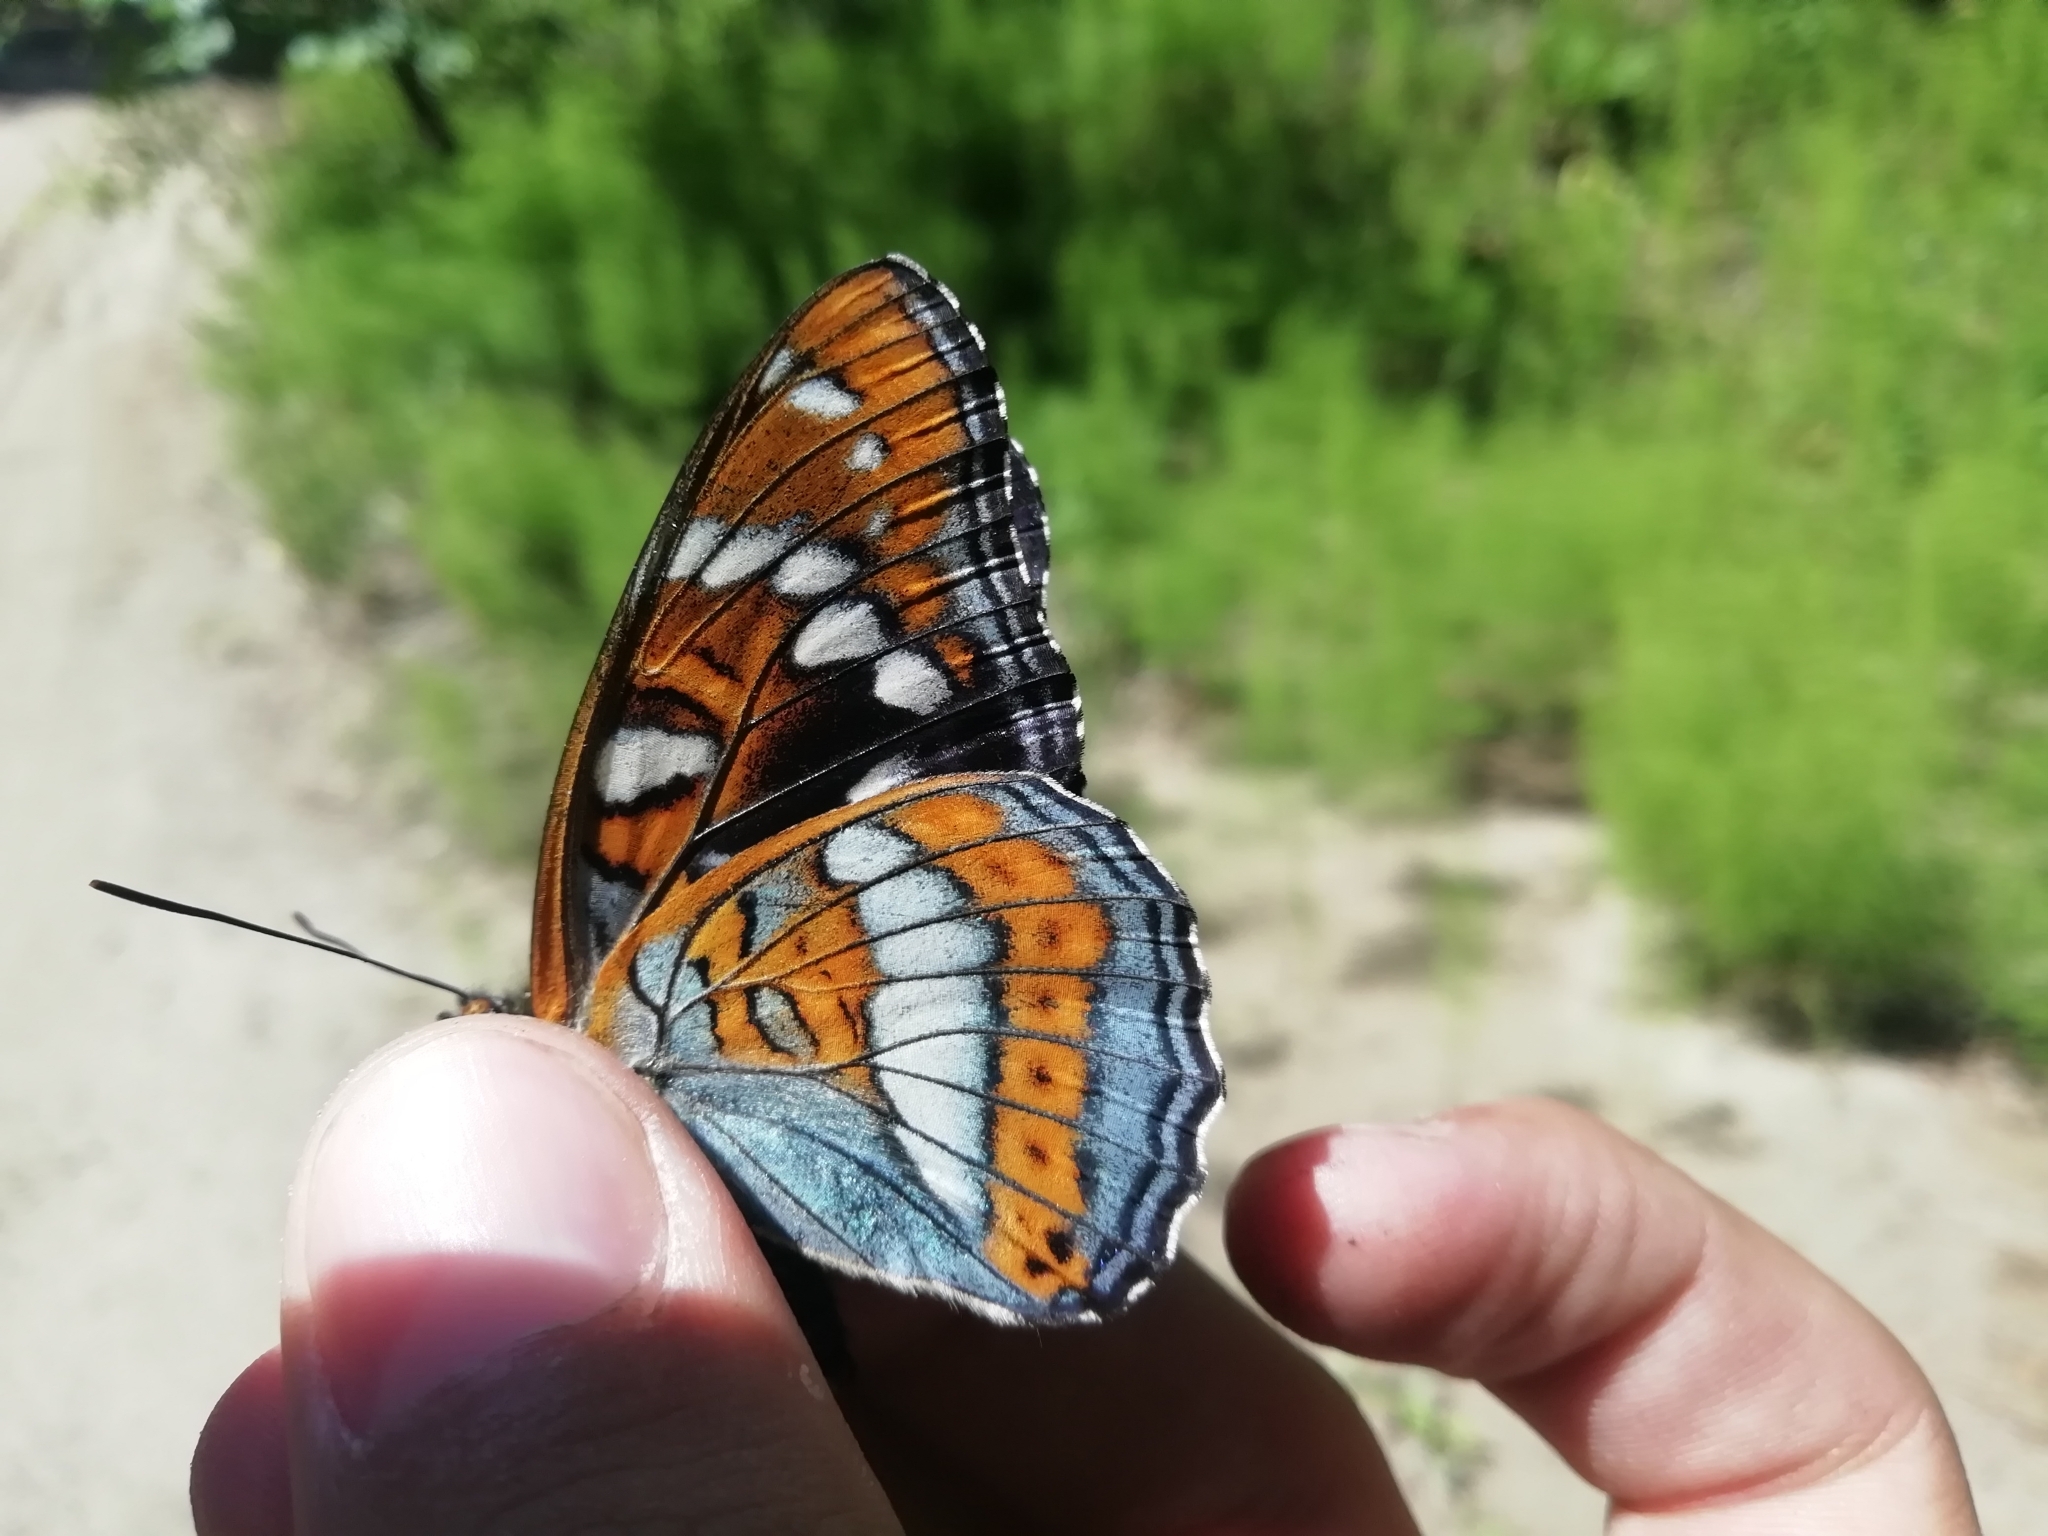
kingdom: Animalia
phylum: Arthropoda
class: Insecta
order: Lepidoptera
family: Nymphalidae
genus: Limenitis
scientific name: Limenitis populi
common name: Poplar admiral
